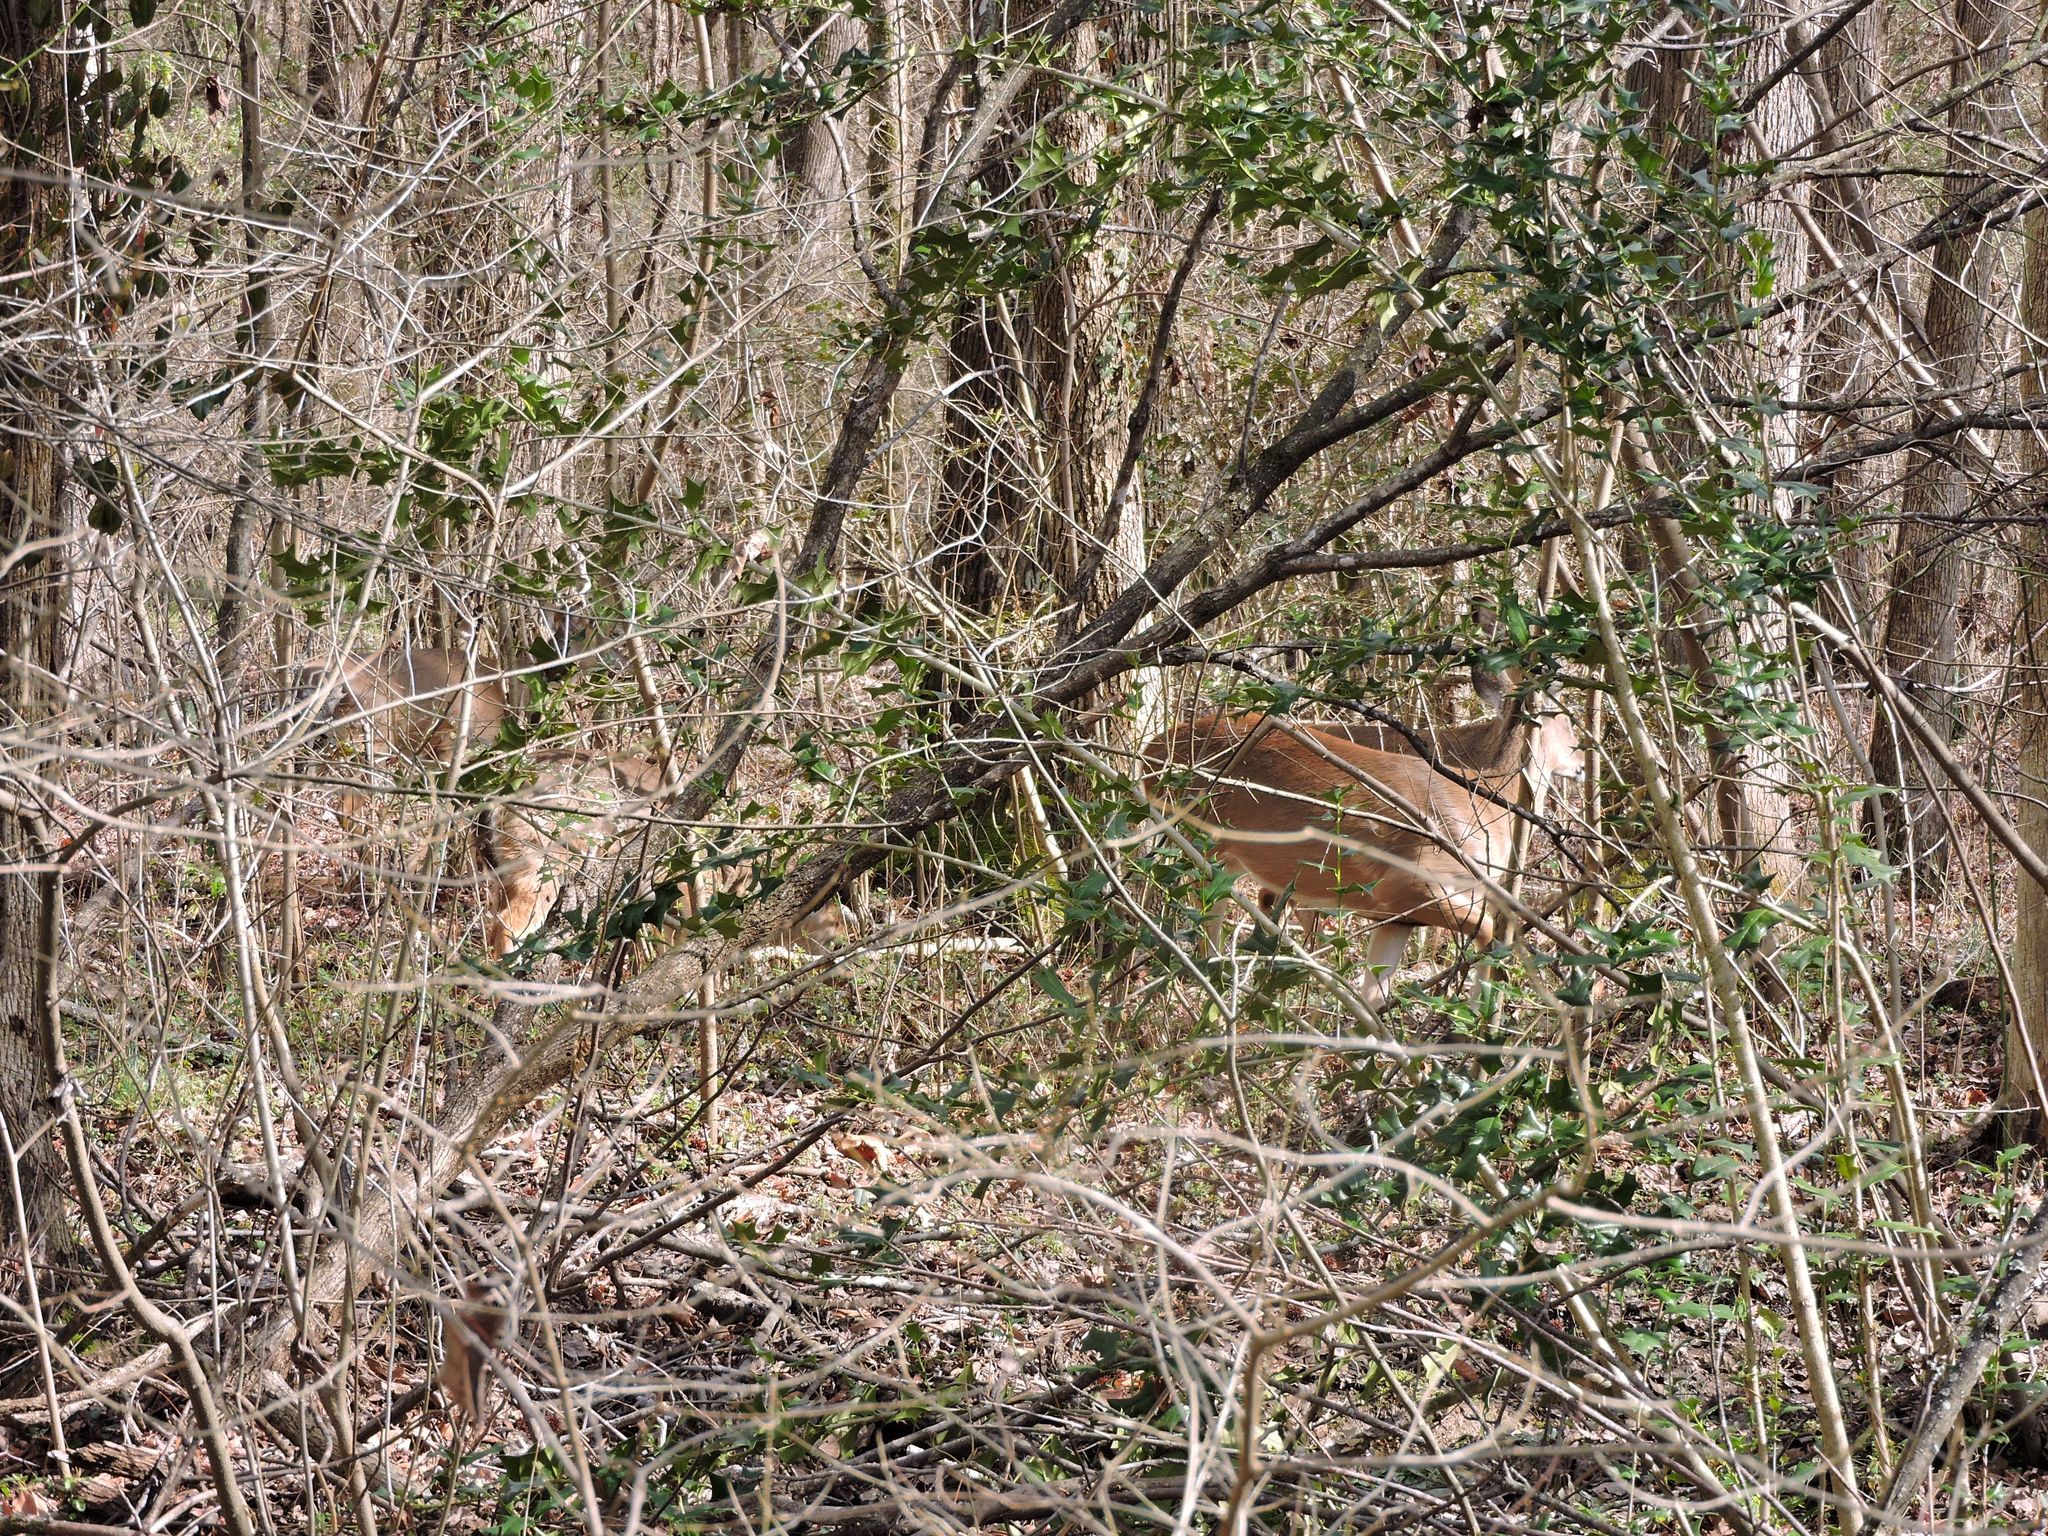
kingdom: Animalia
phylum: Chordata
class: Mammalia
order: Artiodactyla
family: Cervidae
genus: Odocoileus
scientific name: Odocoileus virginianus
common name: White-tailed deer
